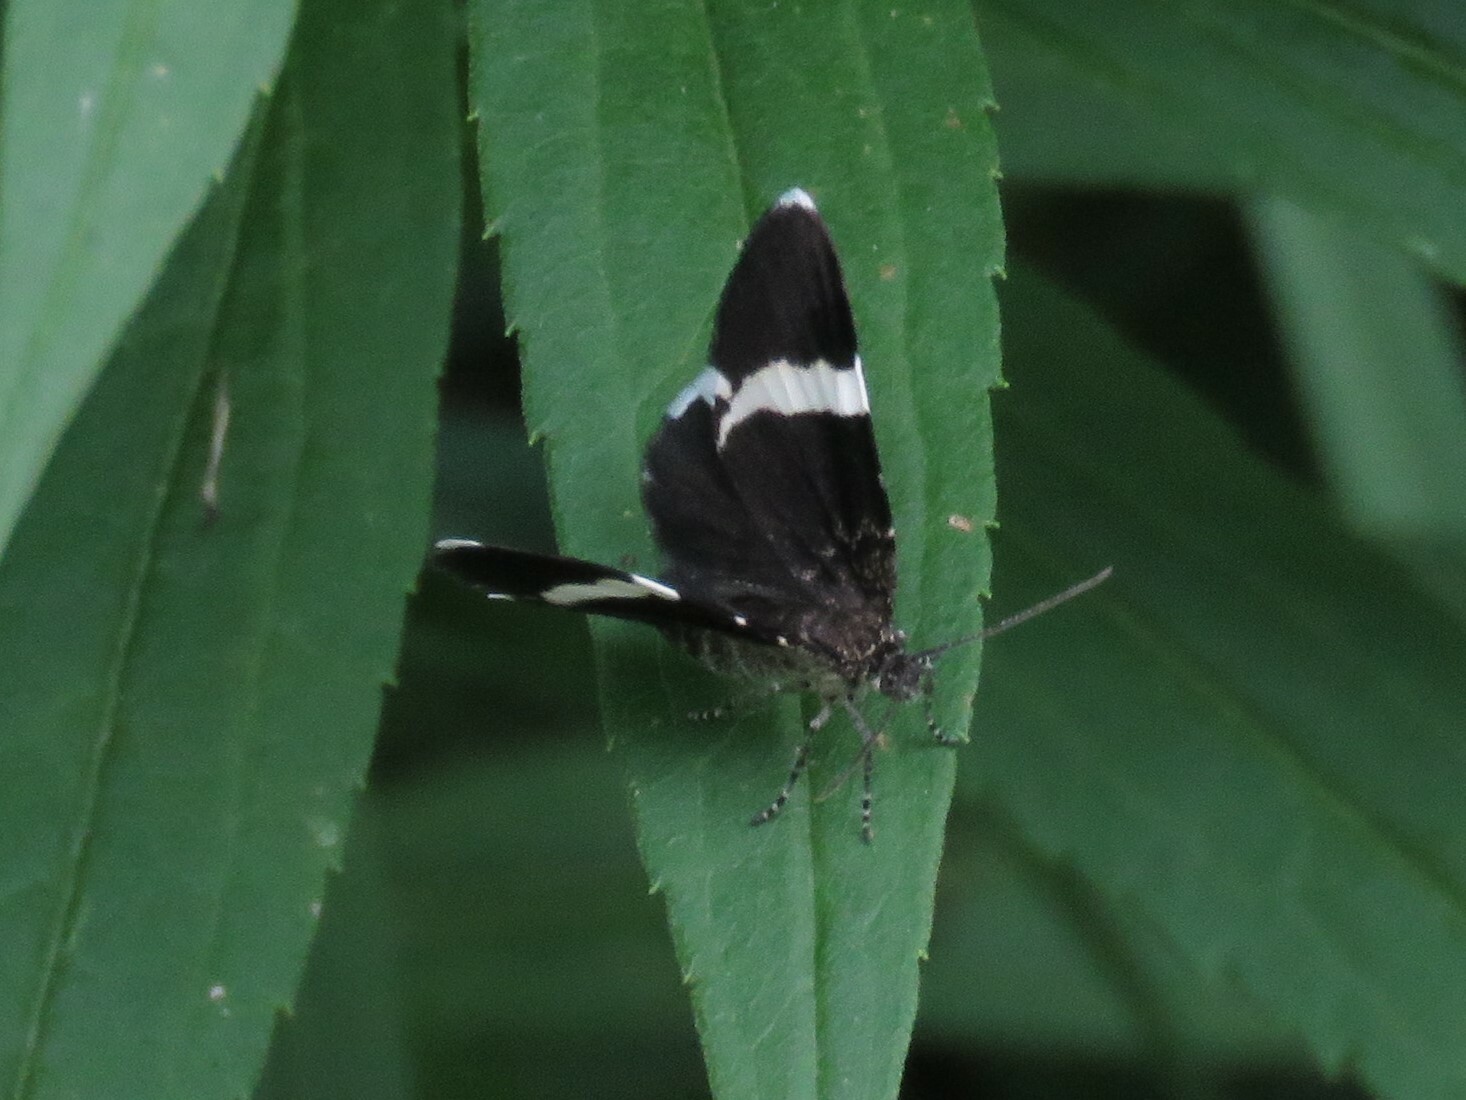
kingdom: Animalia
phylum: Arthropoda
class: Insecta
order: Lepidoptera
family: Geometridae
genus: Trichodezia
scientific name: Trichodezia albovittata
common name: White striped black
